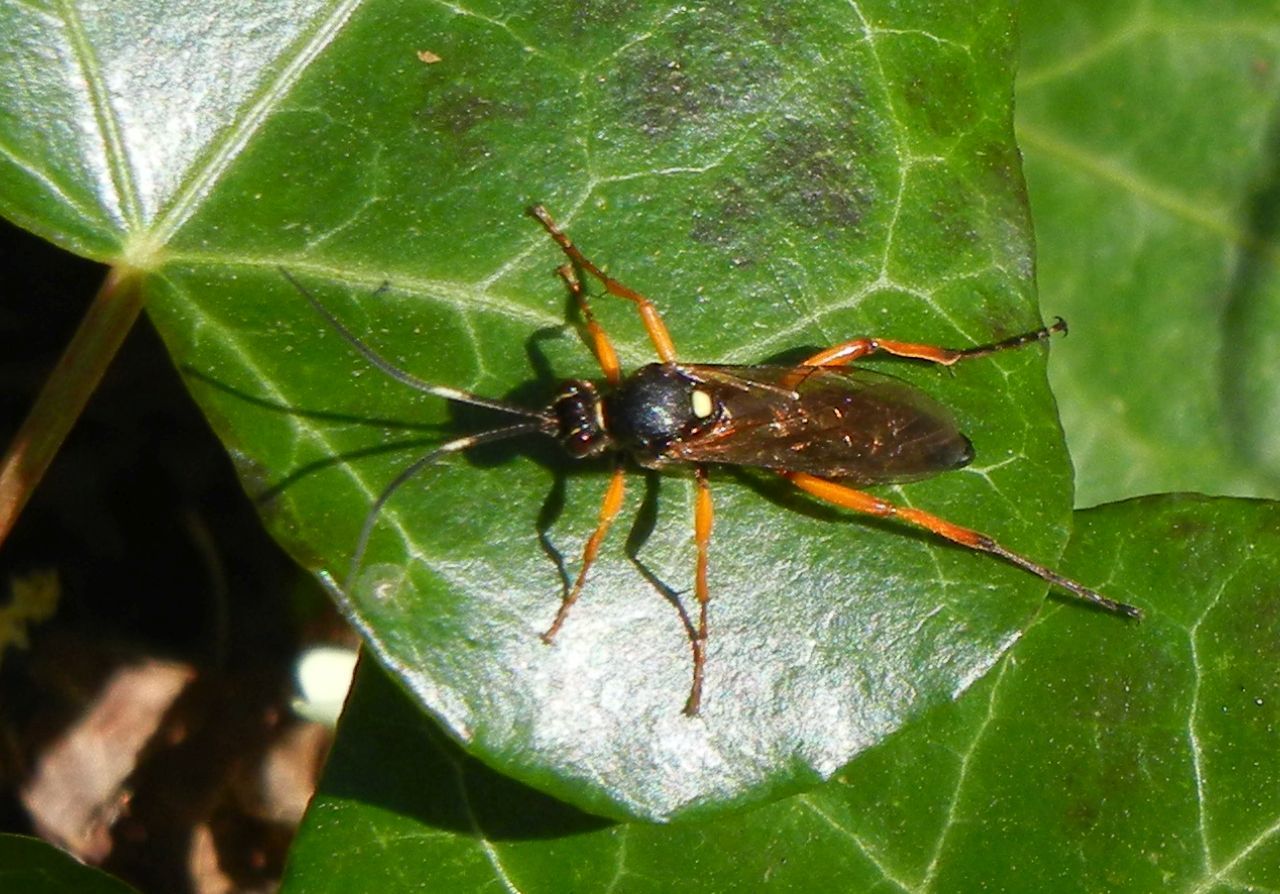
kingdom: Animalia
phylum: Arthropoda
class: Insecta
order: Hymenoptera
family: Ichneumonidae
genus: Diphyus
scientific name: Diphyus quadripunctorius
